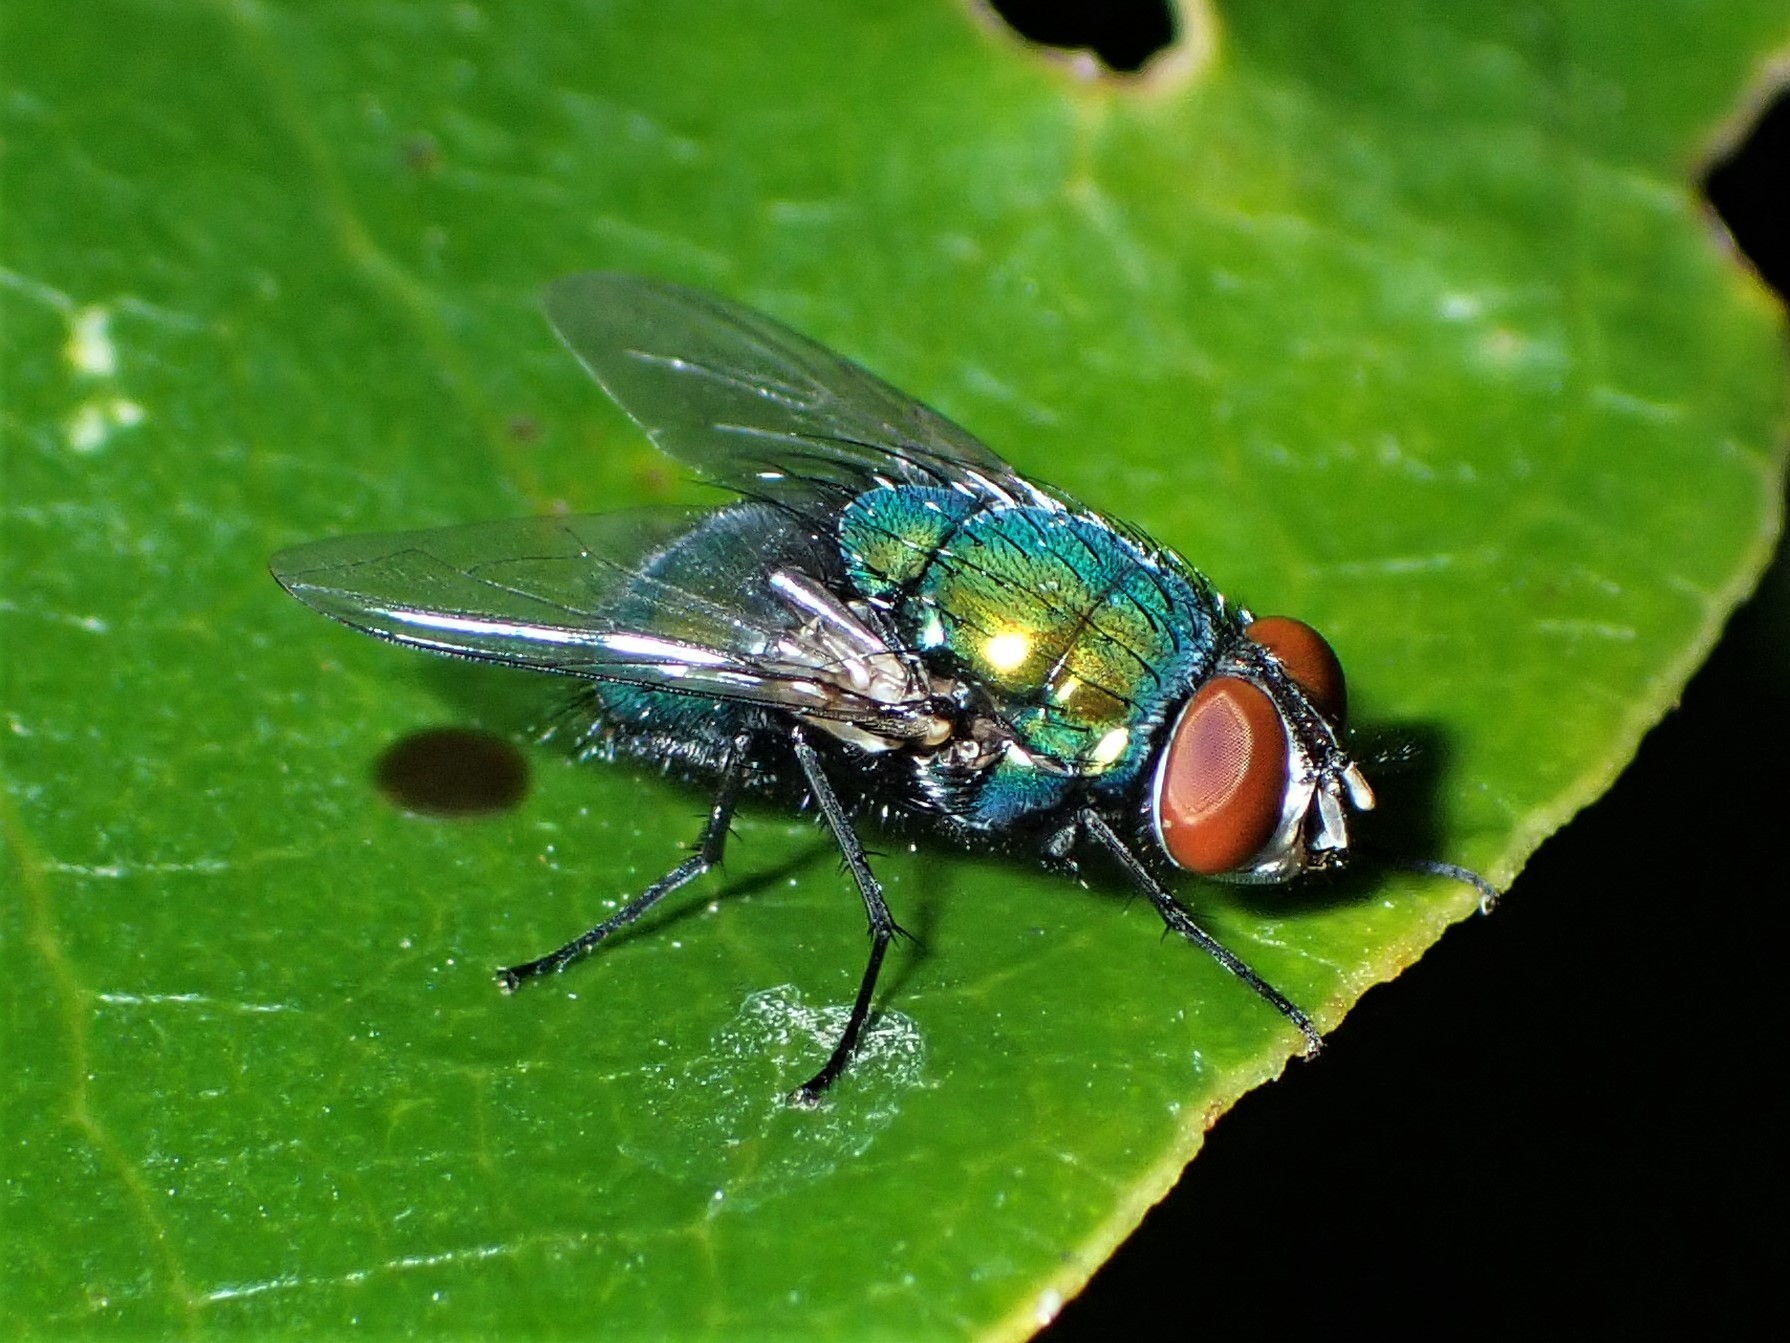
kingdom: Animalia
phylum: Arthropoda
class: Insecta
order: Diptera
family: Calliphoridae
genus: Lucilia
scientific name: Lucilia sericata
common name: Blow fly
